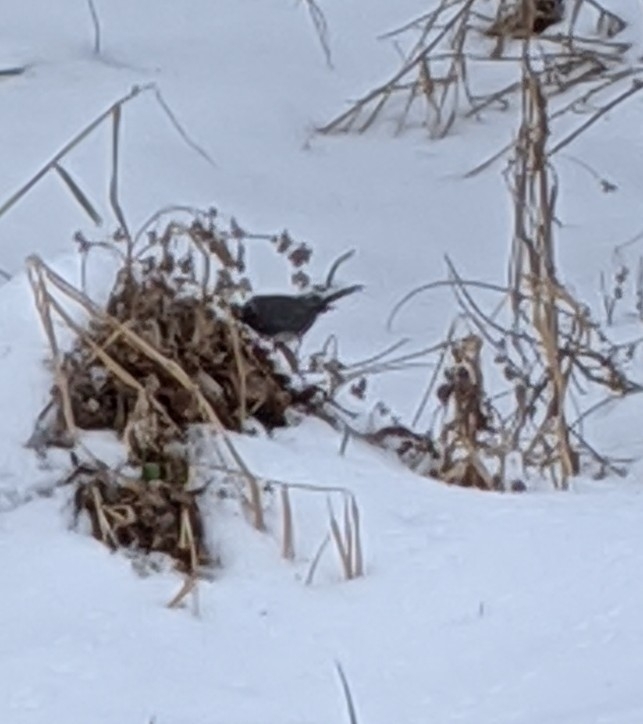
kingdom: Animalia
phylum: Chordata
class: Aves
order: Passeriformes
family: Passerellidae
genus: Junco
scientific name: Junco hyemalis
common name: Dark-eyed junco
